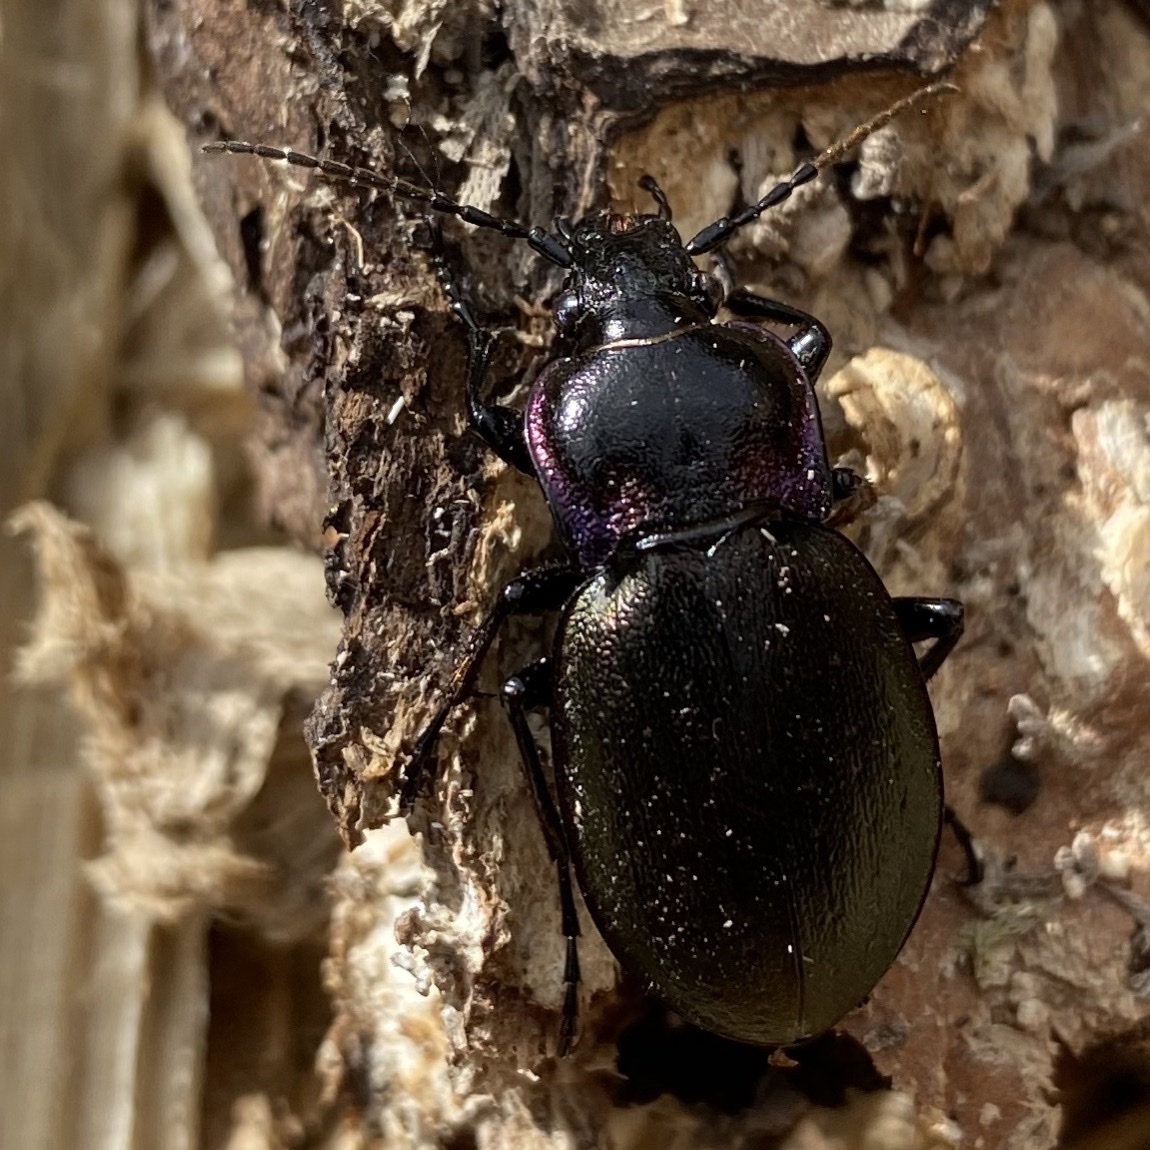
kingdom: Animalia
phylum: Arthropoda
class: Insecta
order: Coleoptera
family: Carabidae
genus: Carabus
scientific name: Carabus nemoralis
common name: European ground beetle
